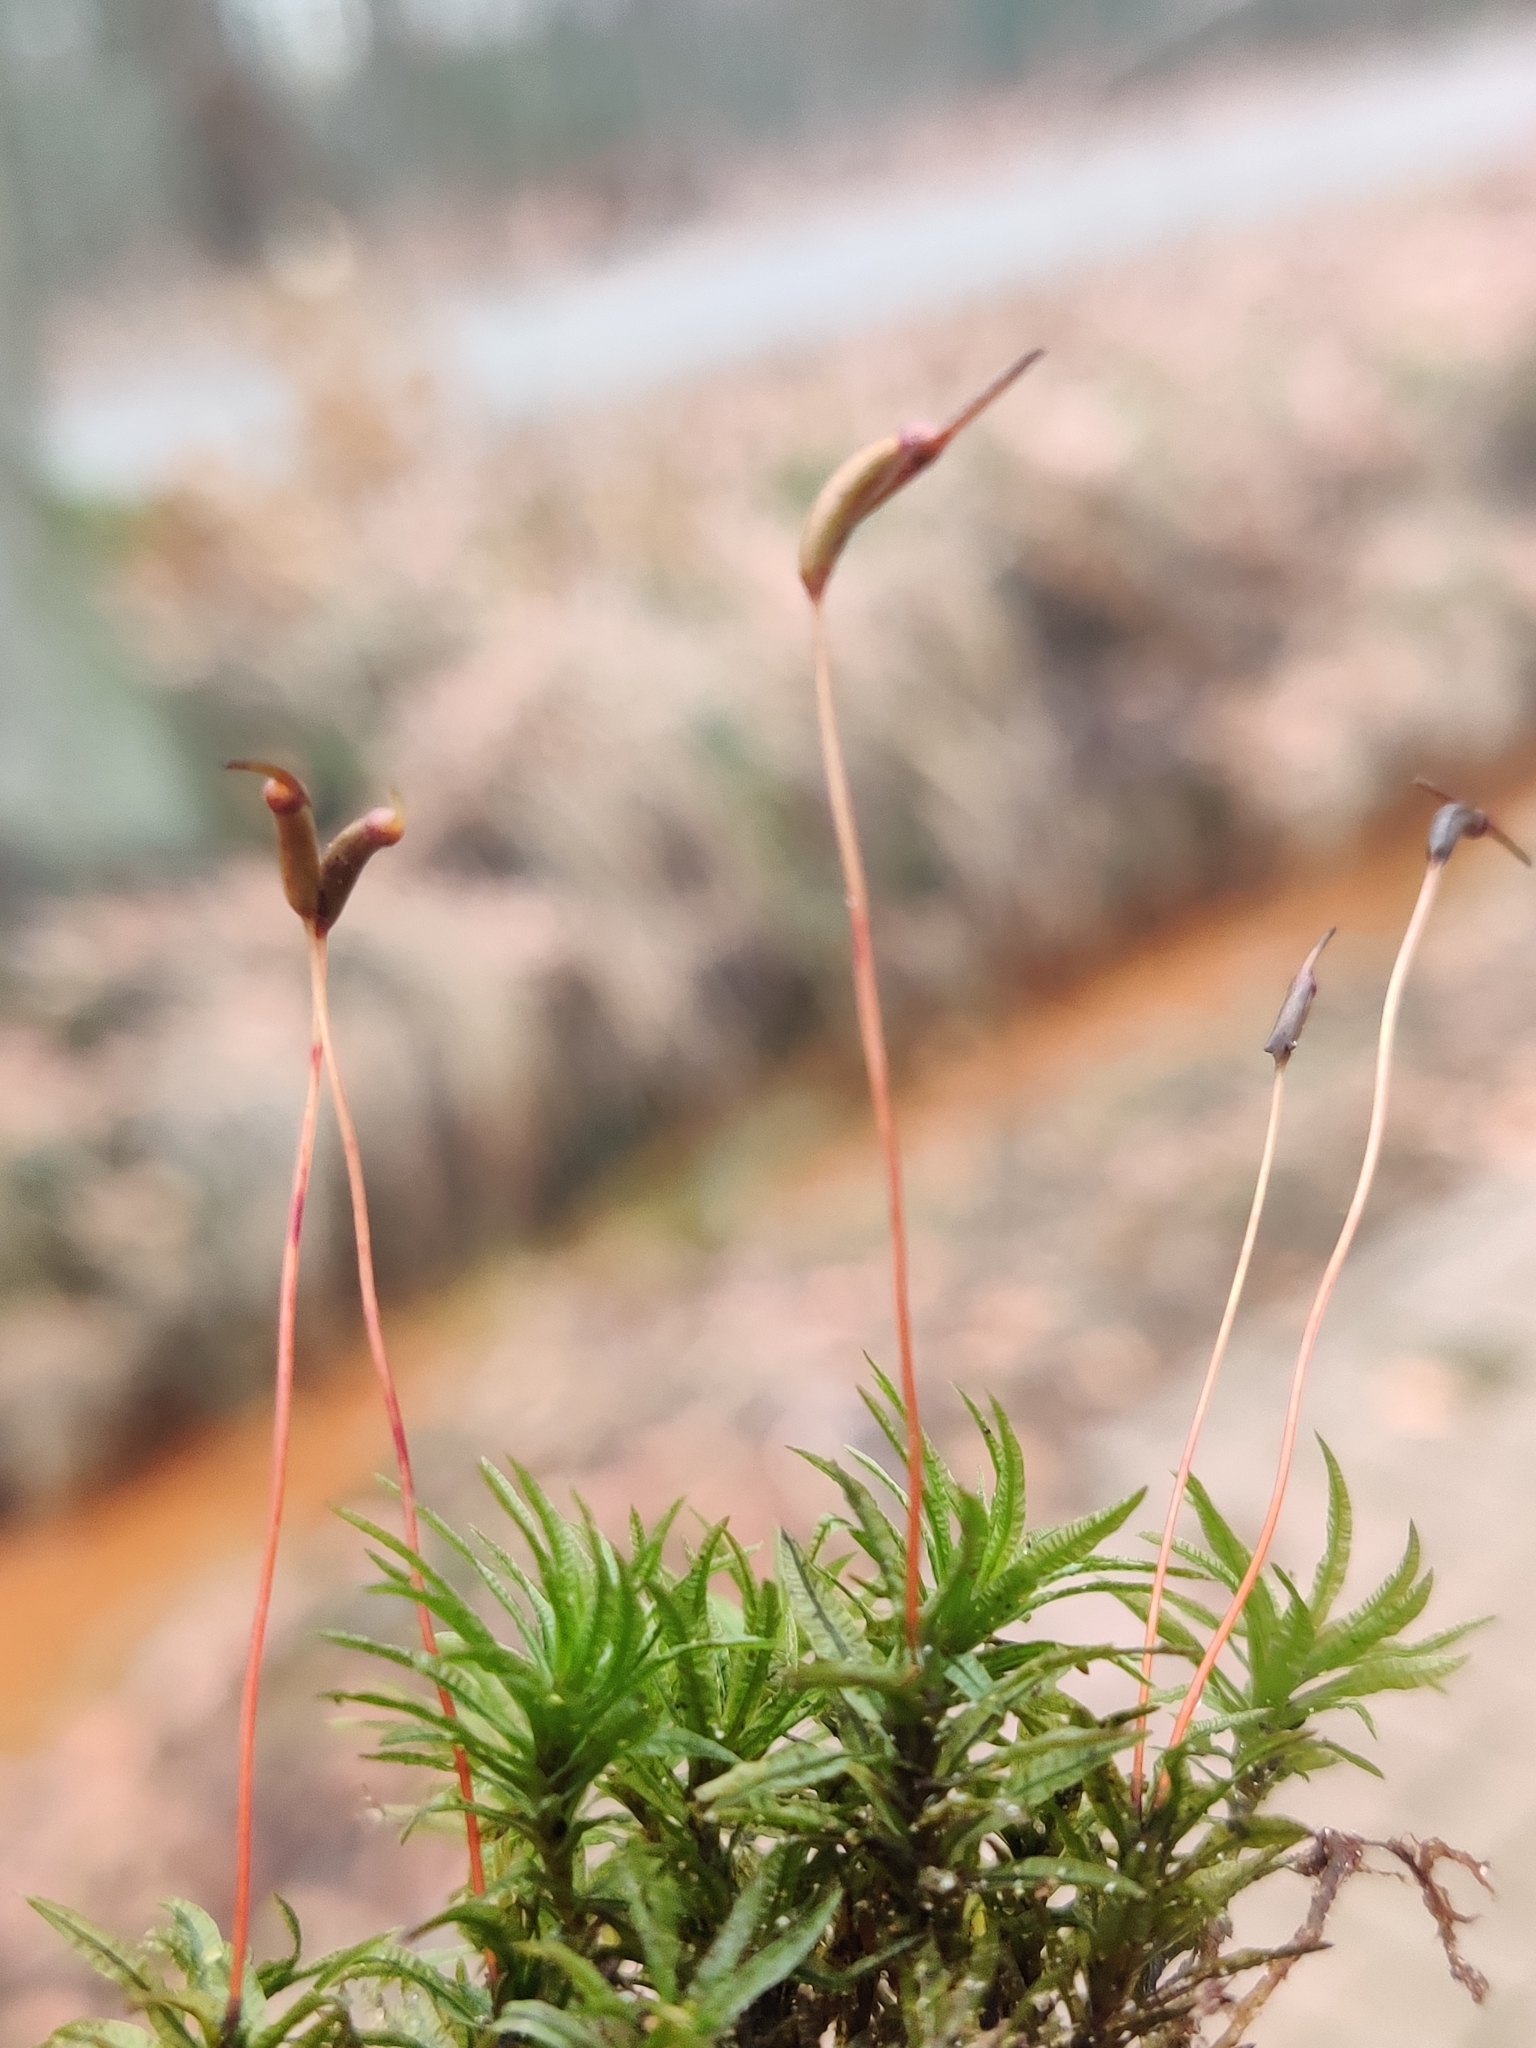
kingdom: Plantae
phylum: Bryophyta
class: Polytrichopsida
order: Polytrichales
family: Polytrichaceae
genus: Atrichum
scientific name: Atrichum undulatum
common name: Common smoothcap
